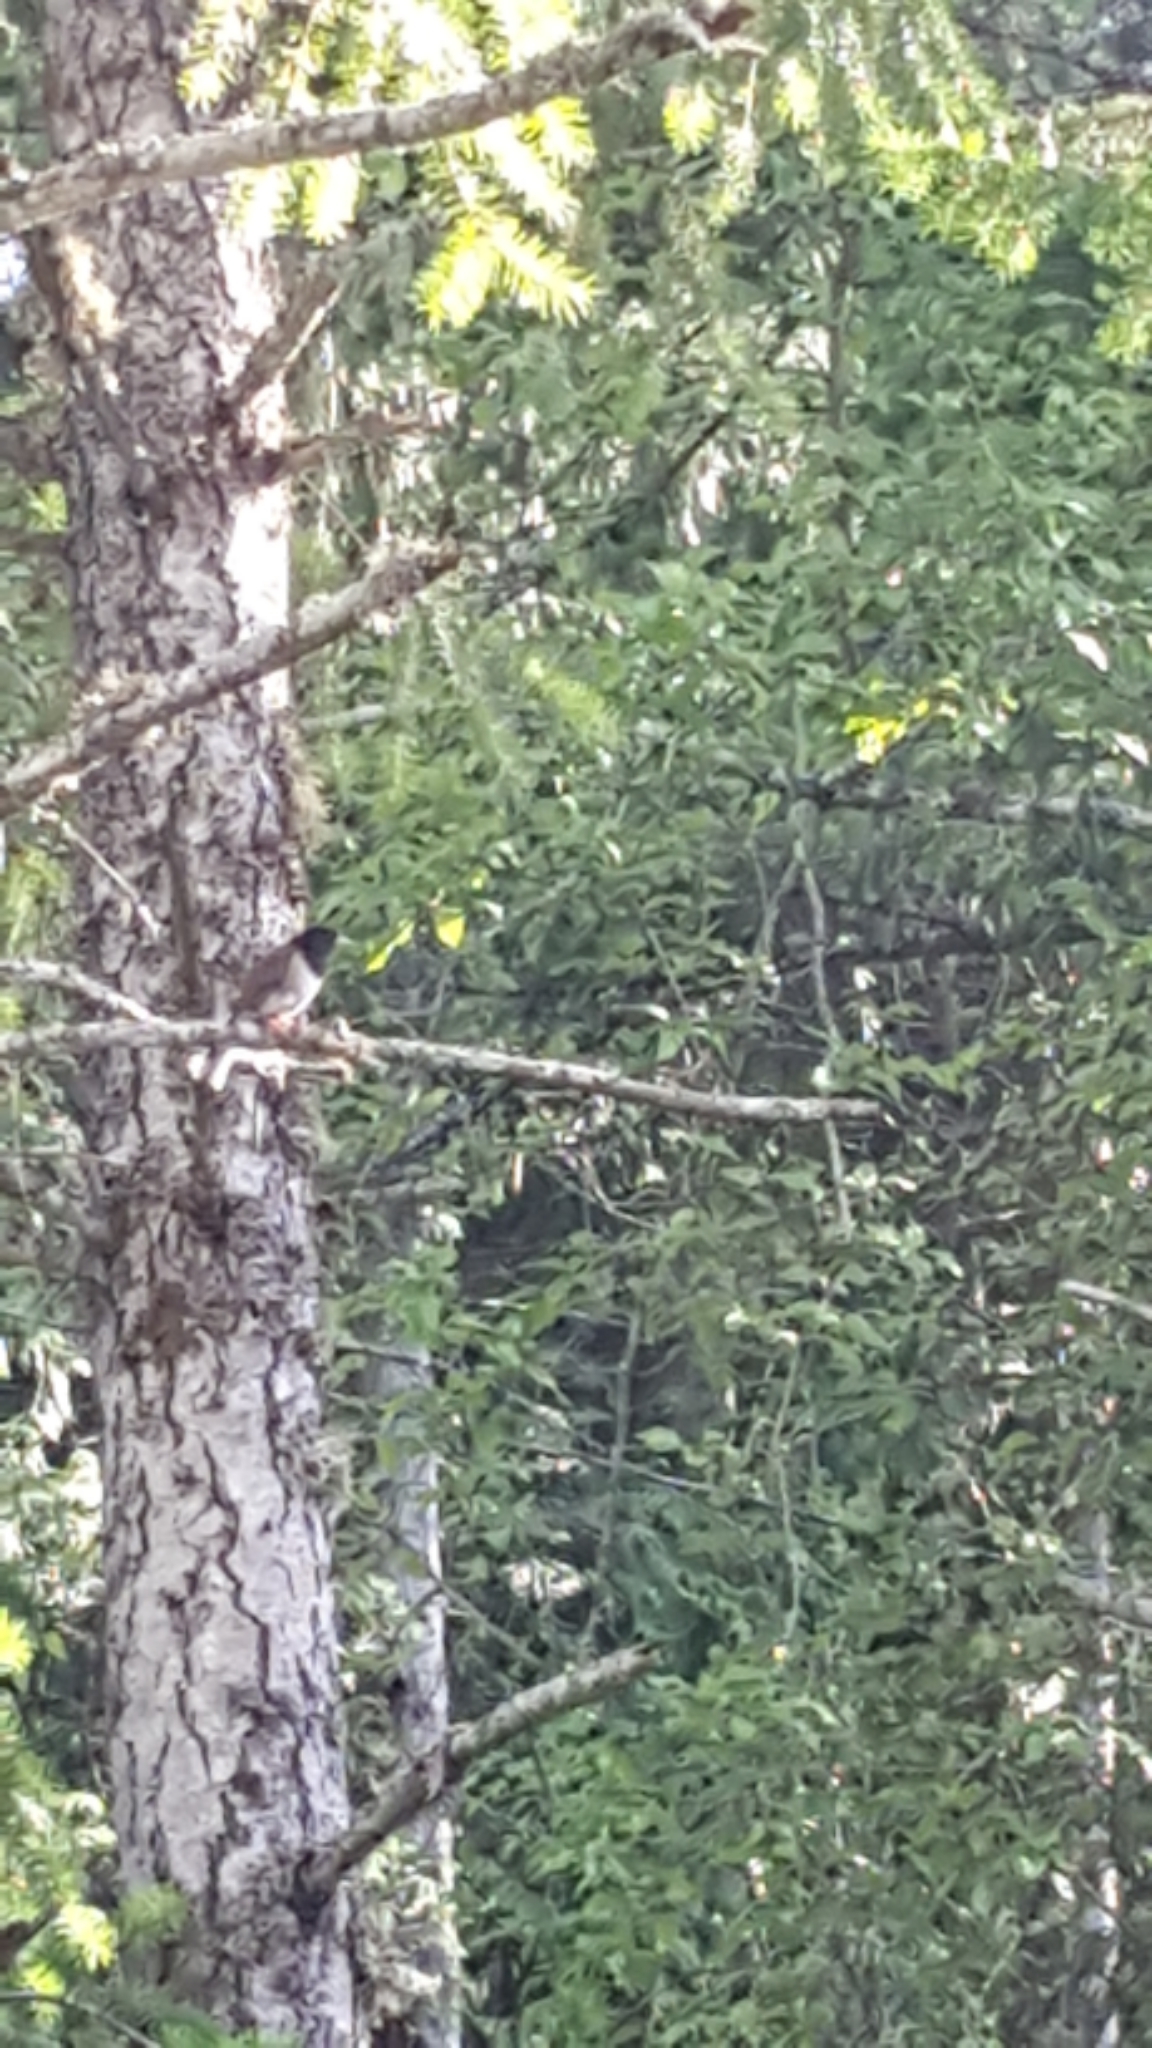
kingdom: Animalia
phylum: Chordata
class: Aves
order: Passeriformes
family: Passerellidae
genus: Junco
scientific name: Junco hyemalis
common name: Dark-eyed junco
